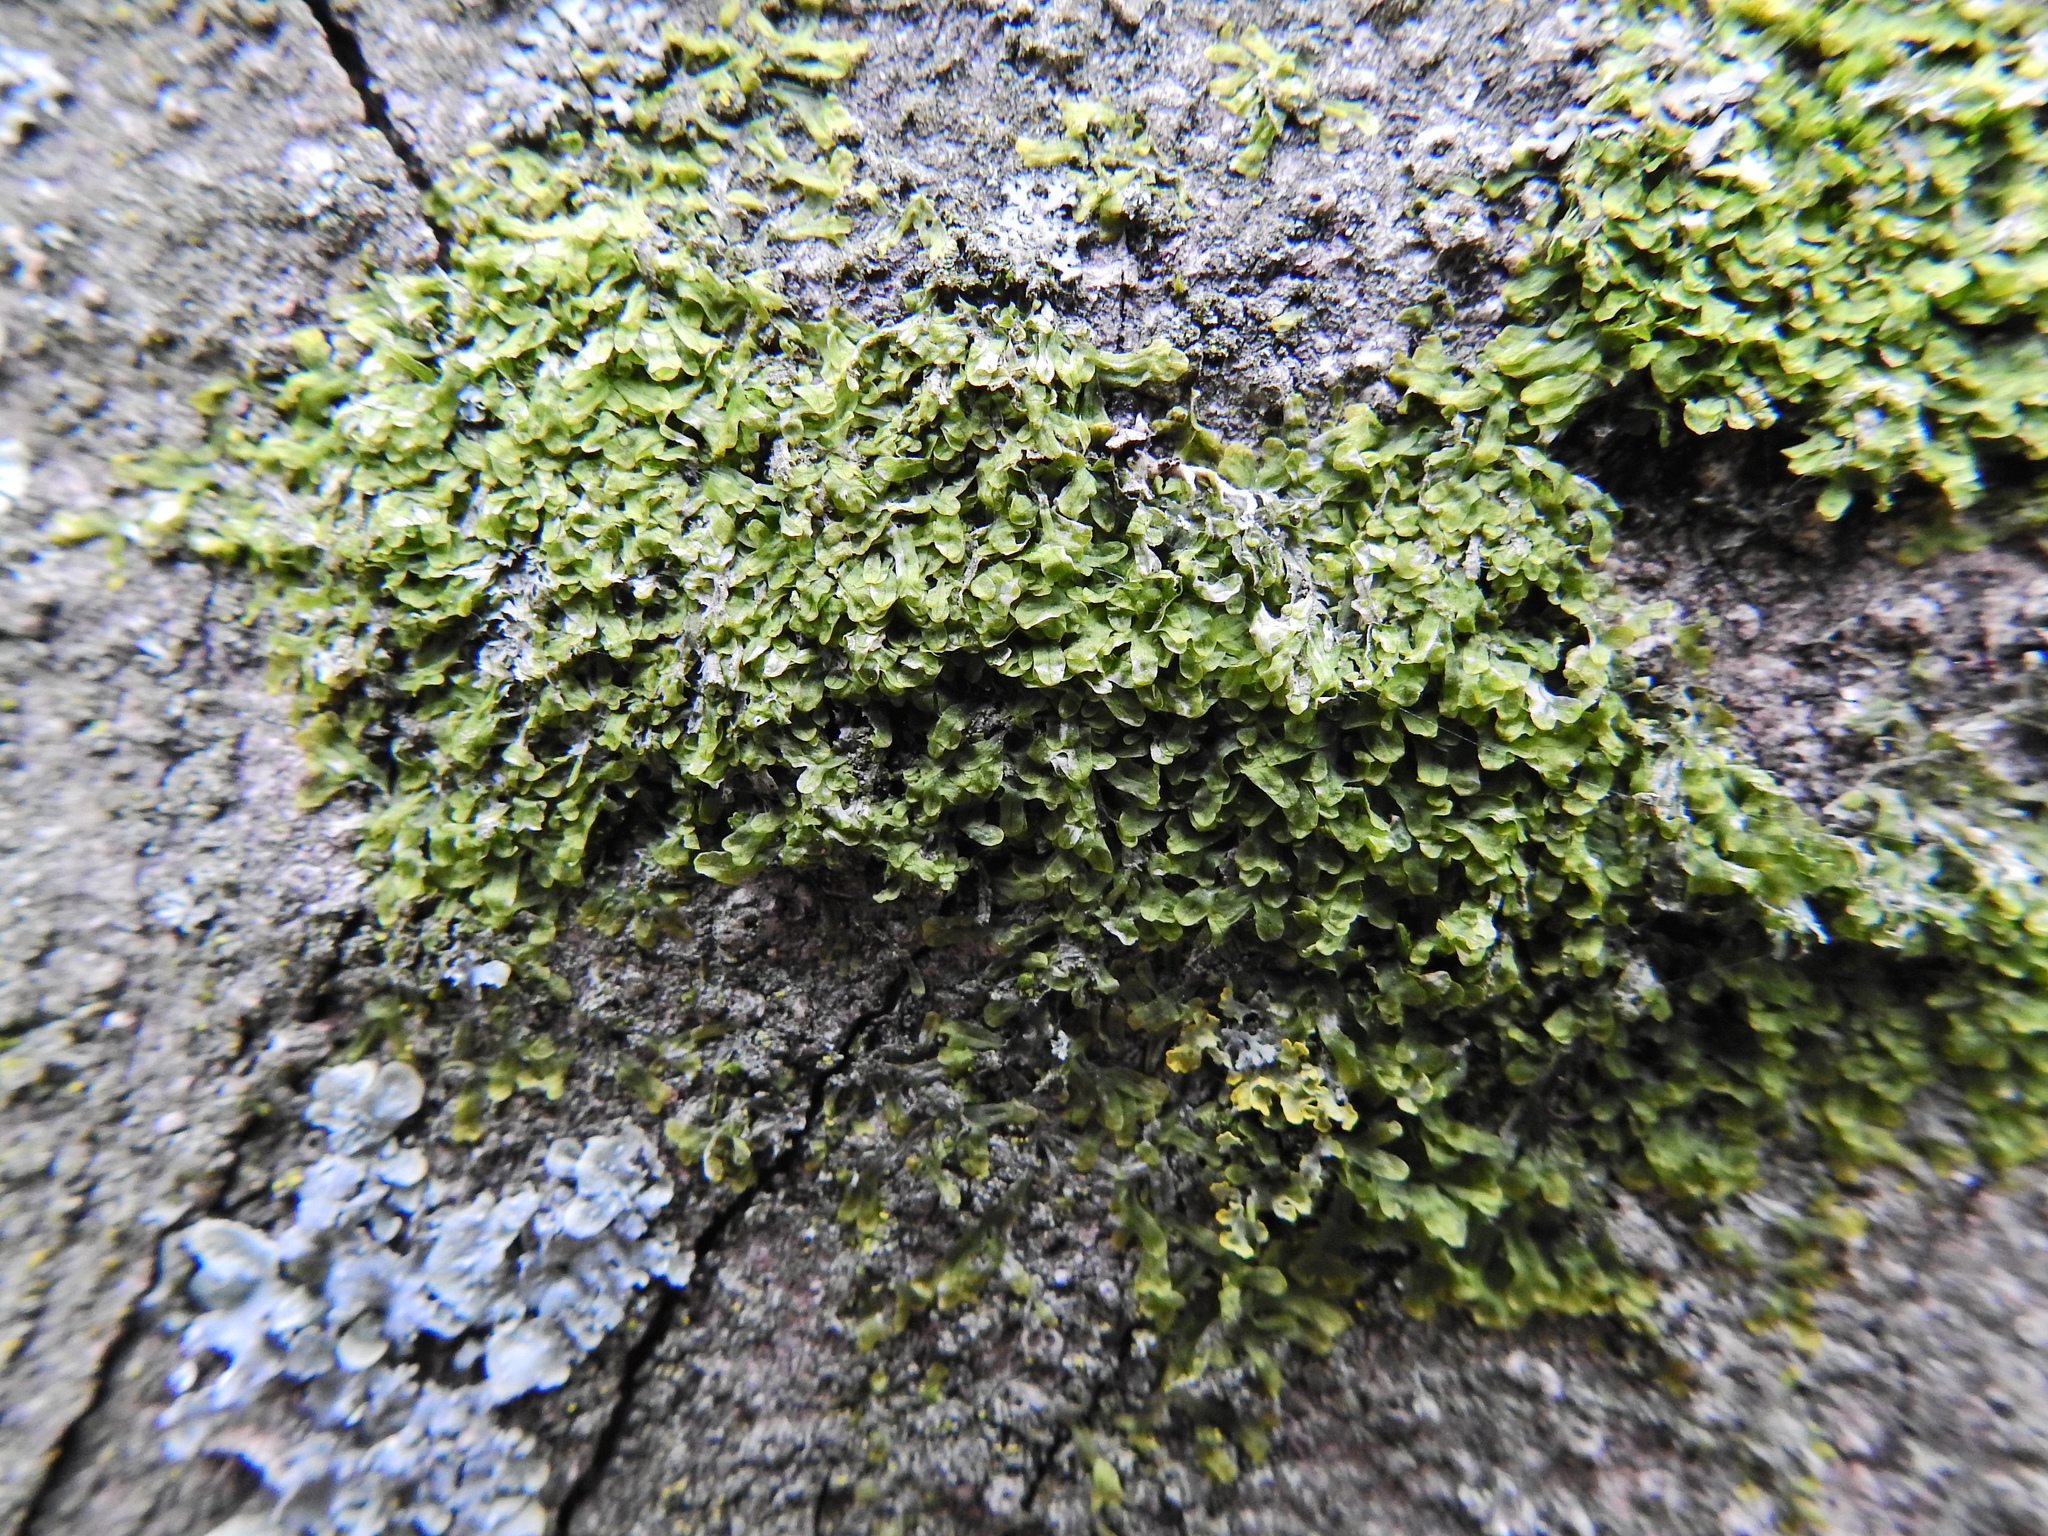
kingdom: Plantae
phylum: Marchantiophyta
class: Jungermanniopsida
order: Metzgeriales
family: Metzgeriaceae
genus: Metzgeria
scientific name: Metzgeria furcata
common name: Forked veilwort
